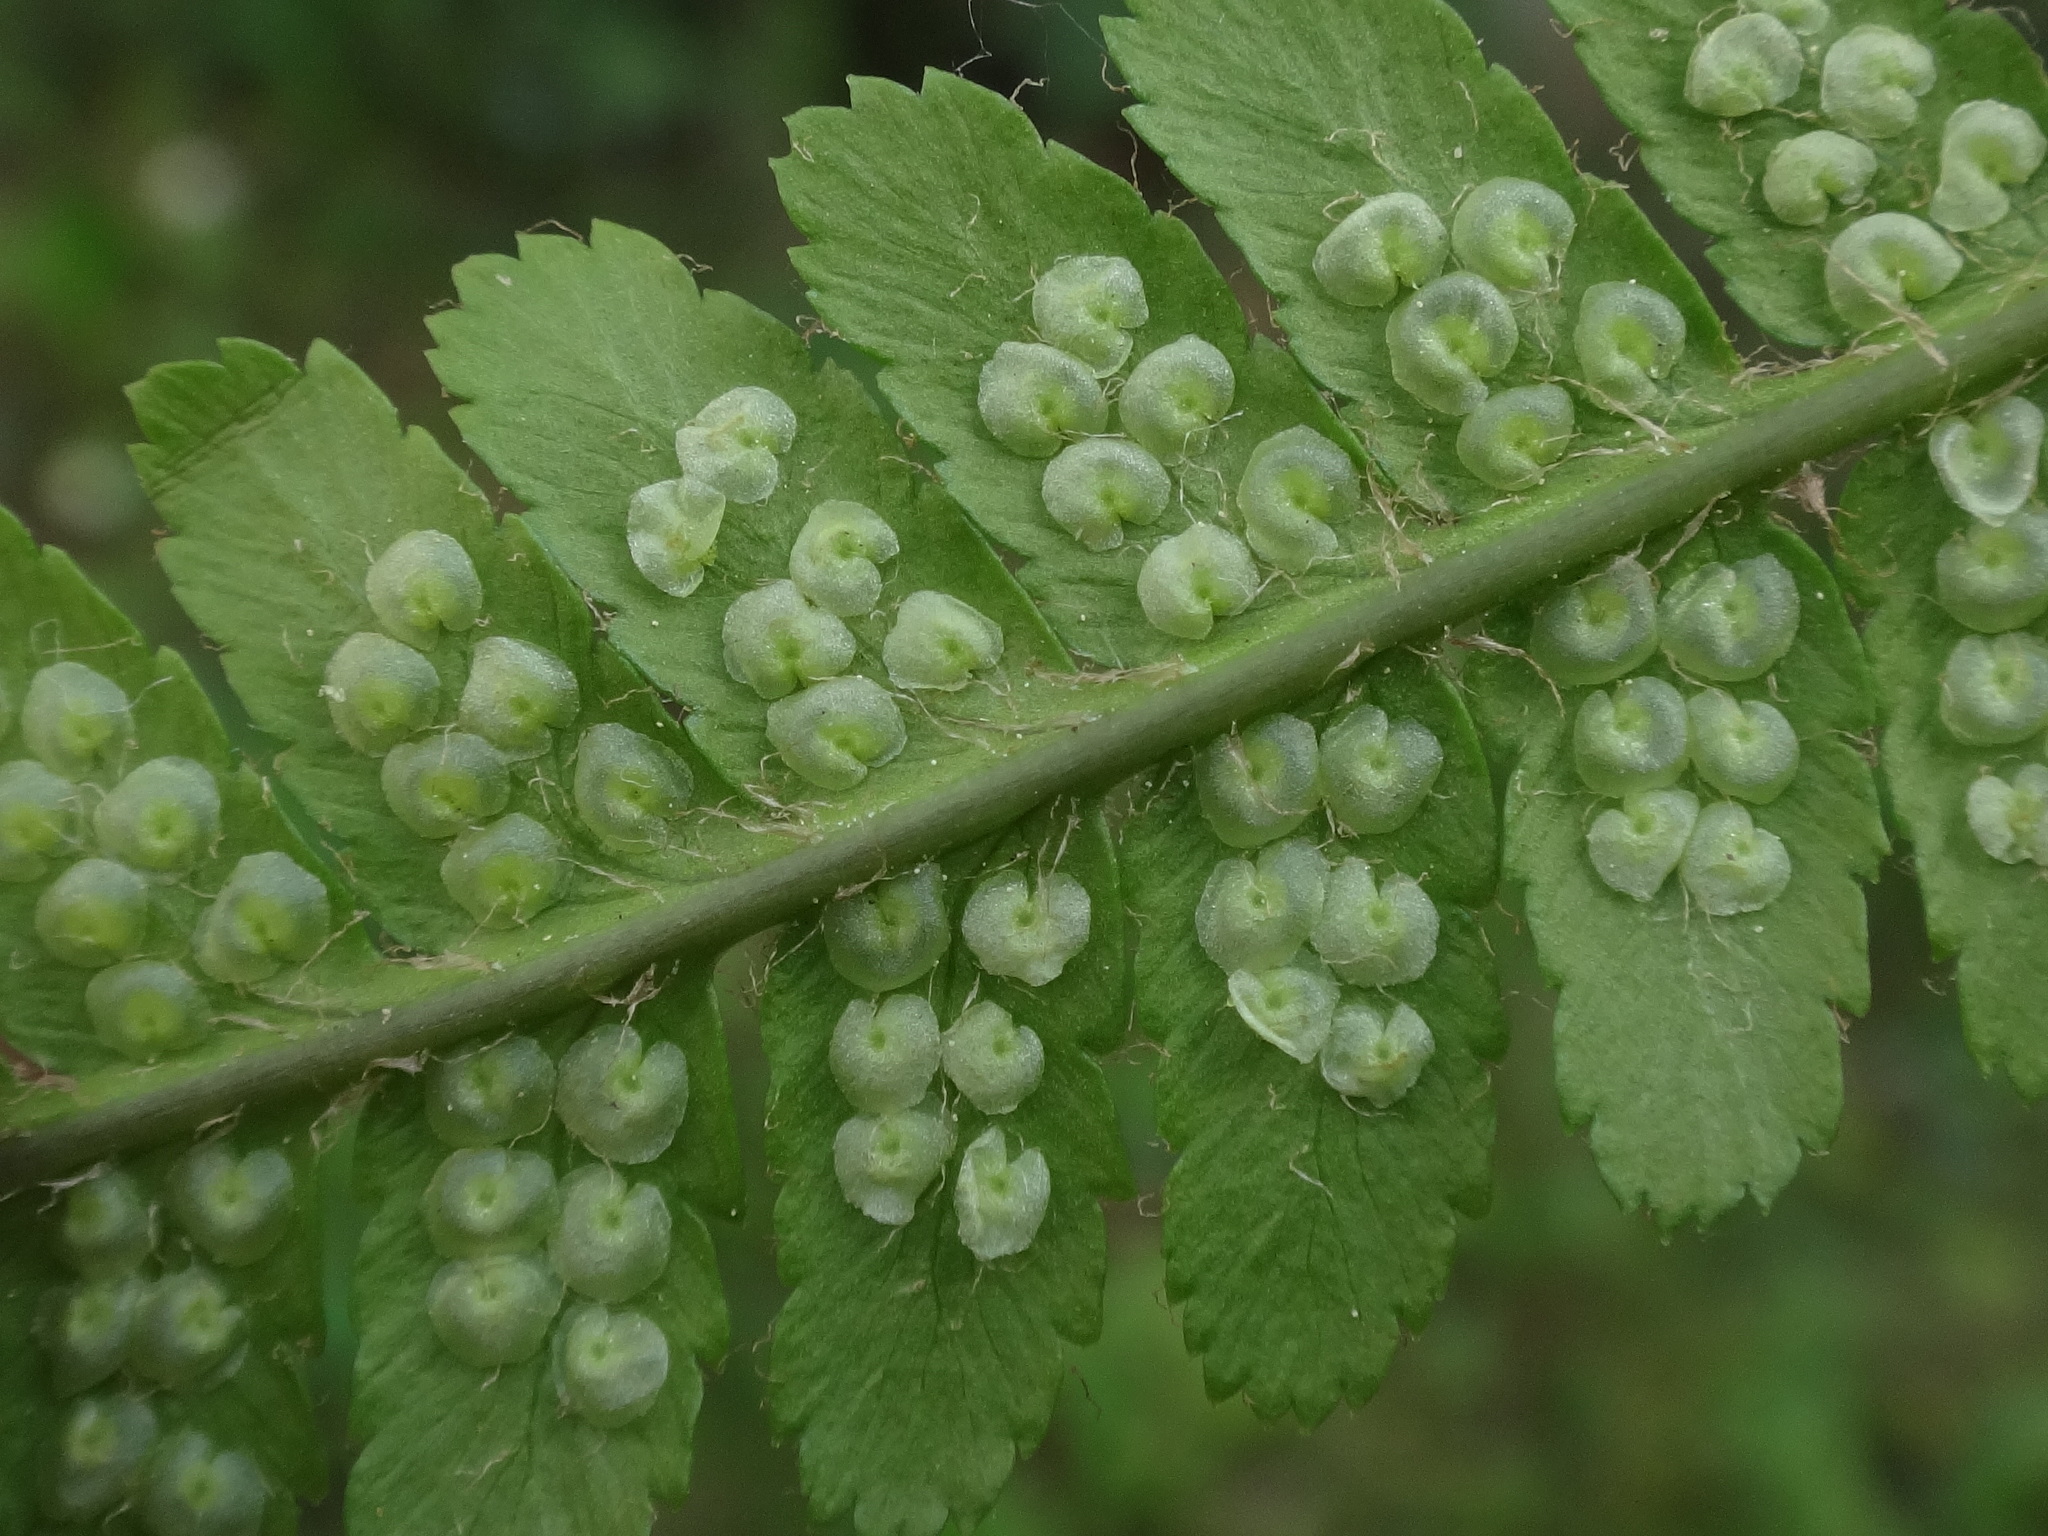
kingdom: Plantae
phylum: Tracheophyta
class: Polypodiopsida
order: Polypodiales
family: Dryopteridaceae
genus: Dryopteris
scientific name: Dryopteris filix-mas
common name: Male fern
